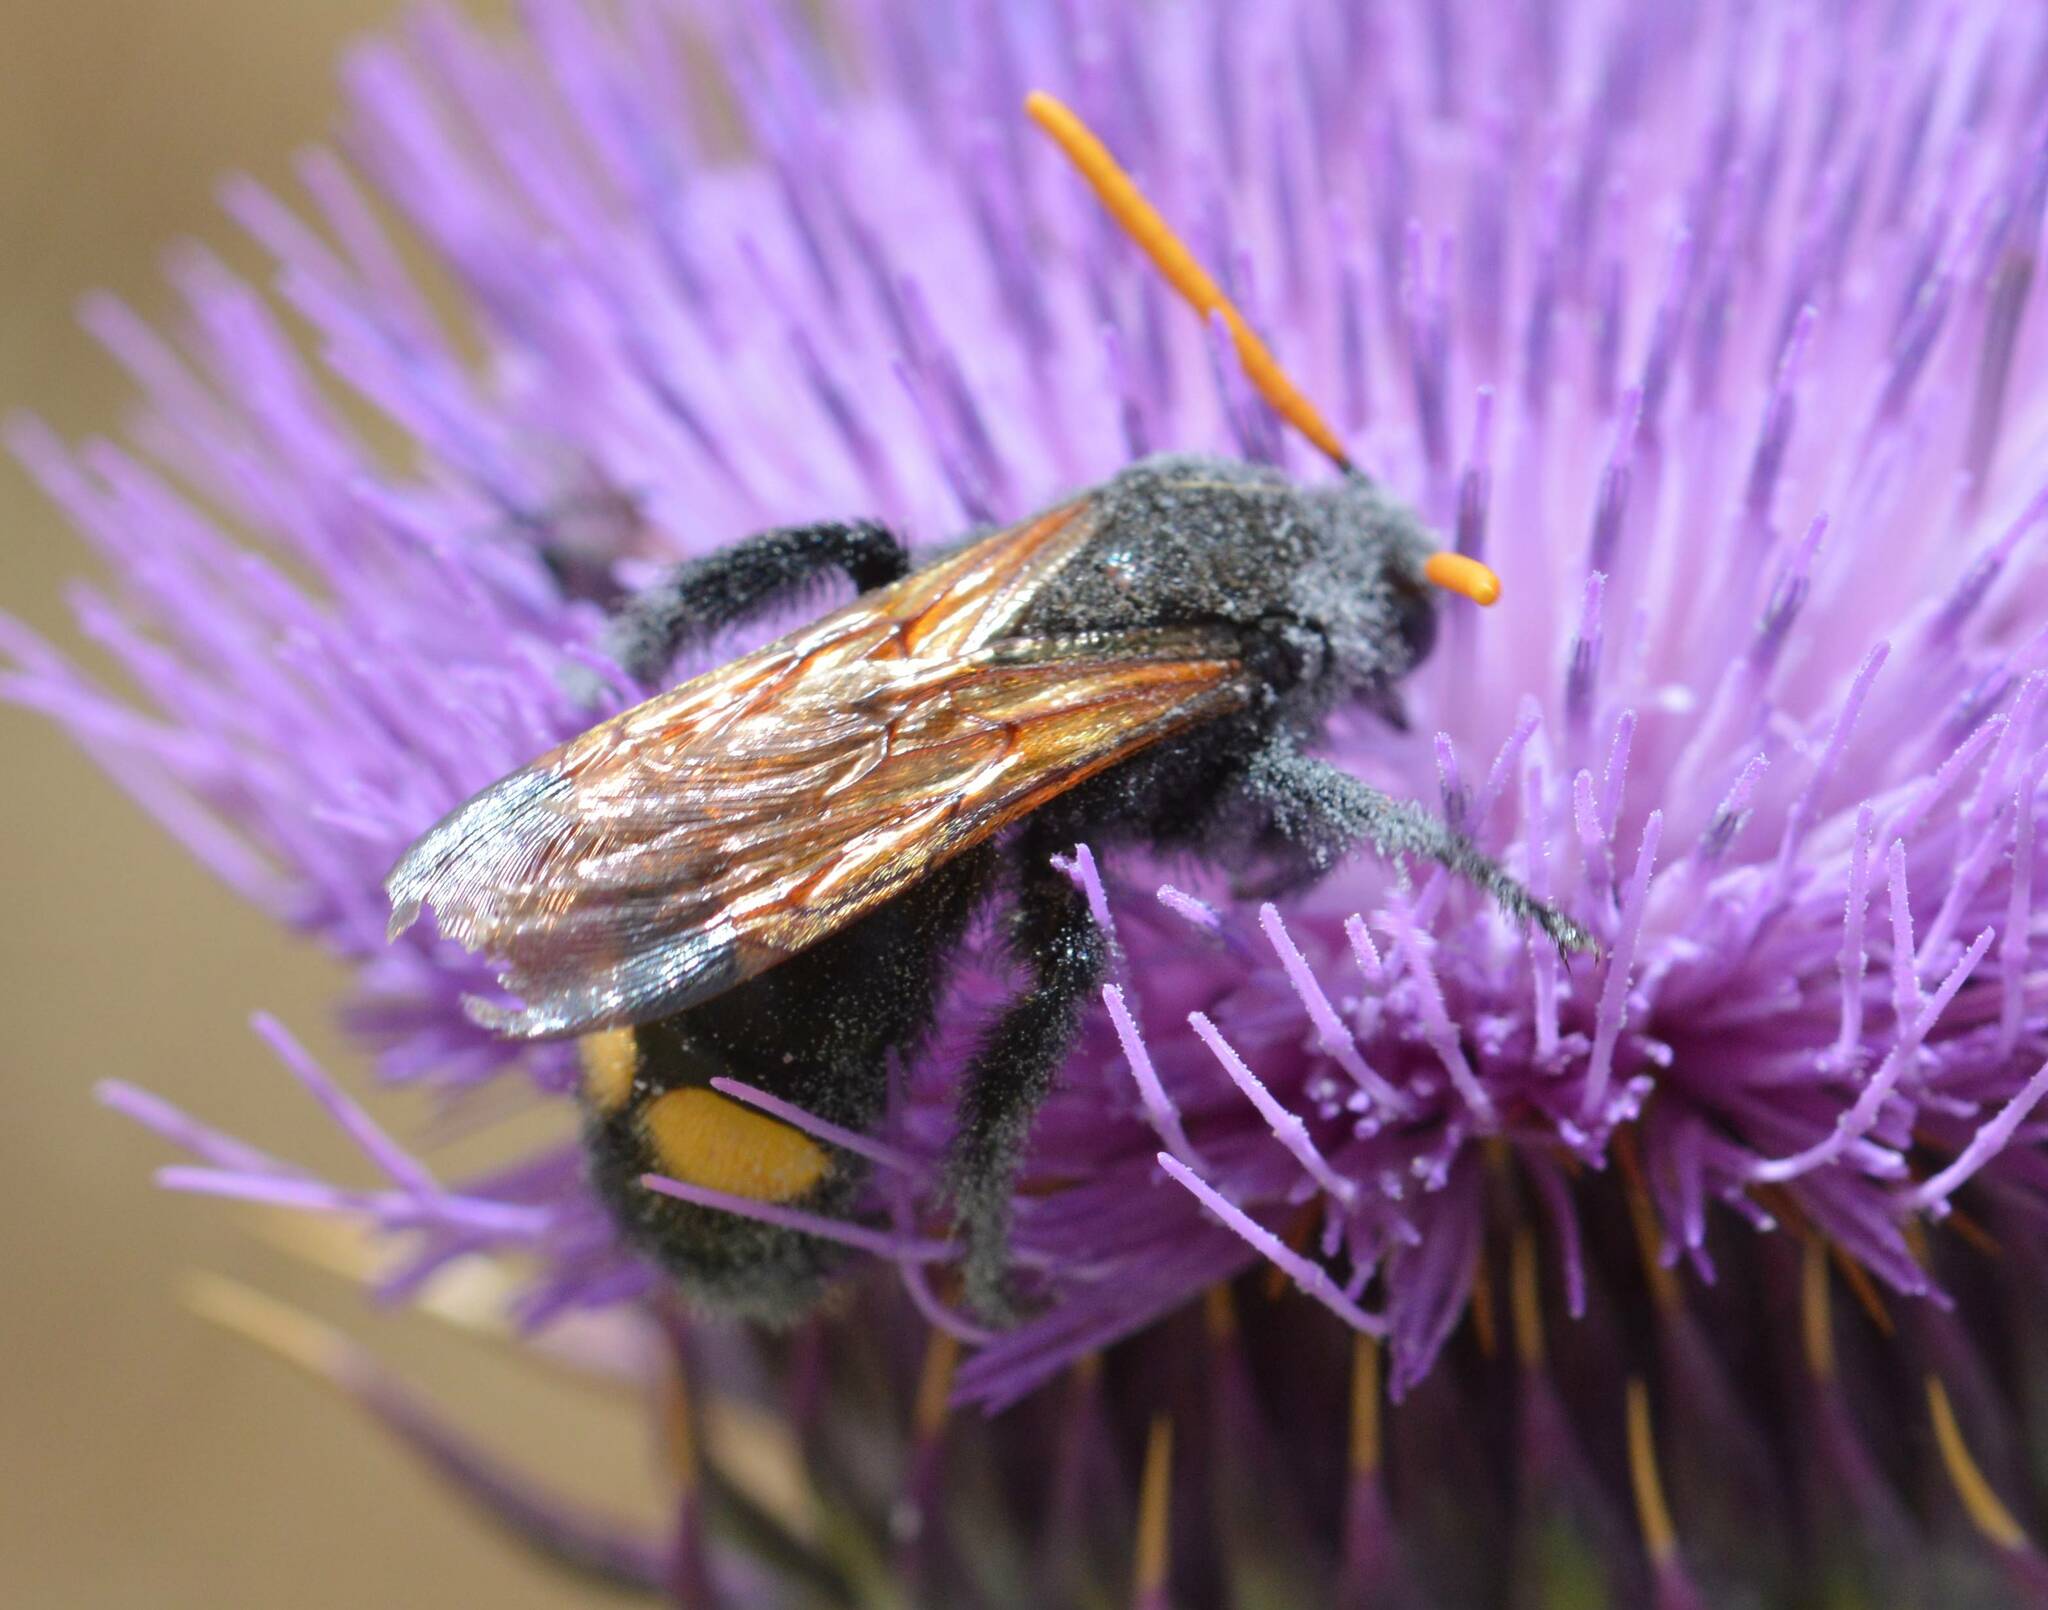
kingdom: Animalia
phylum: Arthropoda
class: Insecta
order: Hymenoptera
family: Scoliidae
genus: Megascolia
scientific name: Megascolia bidens
